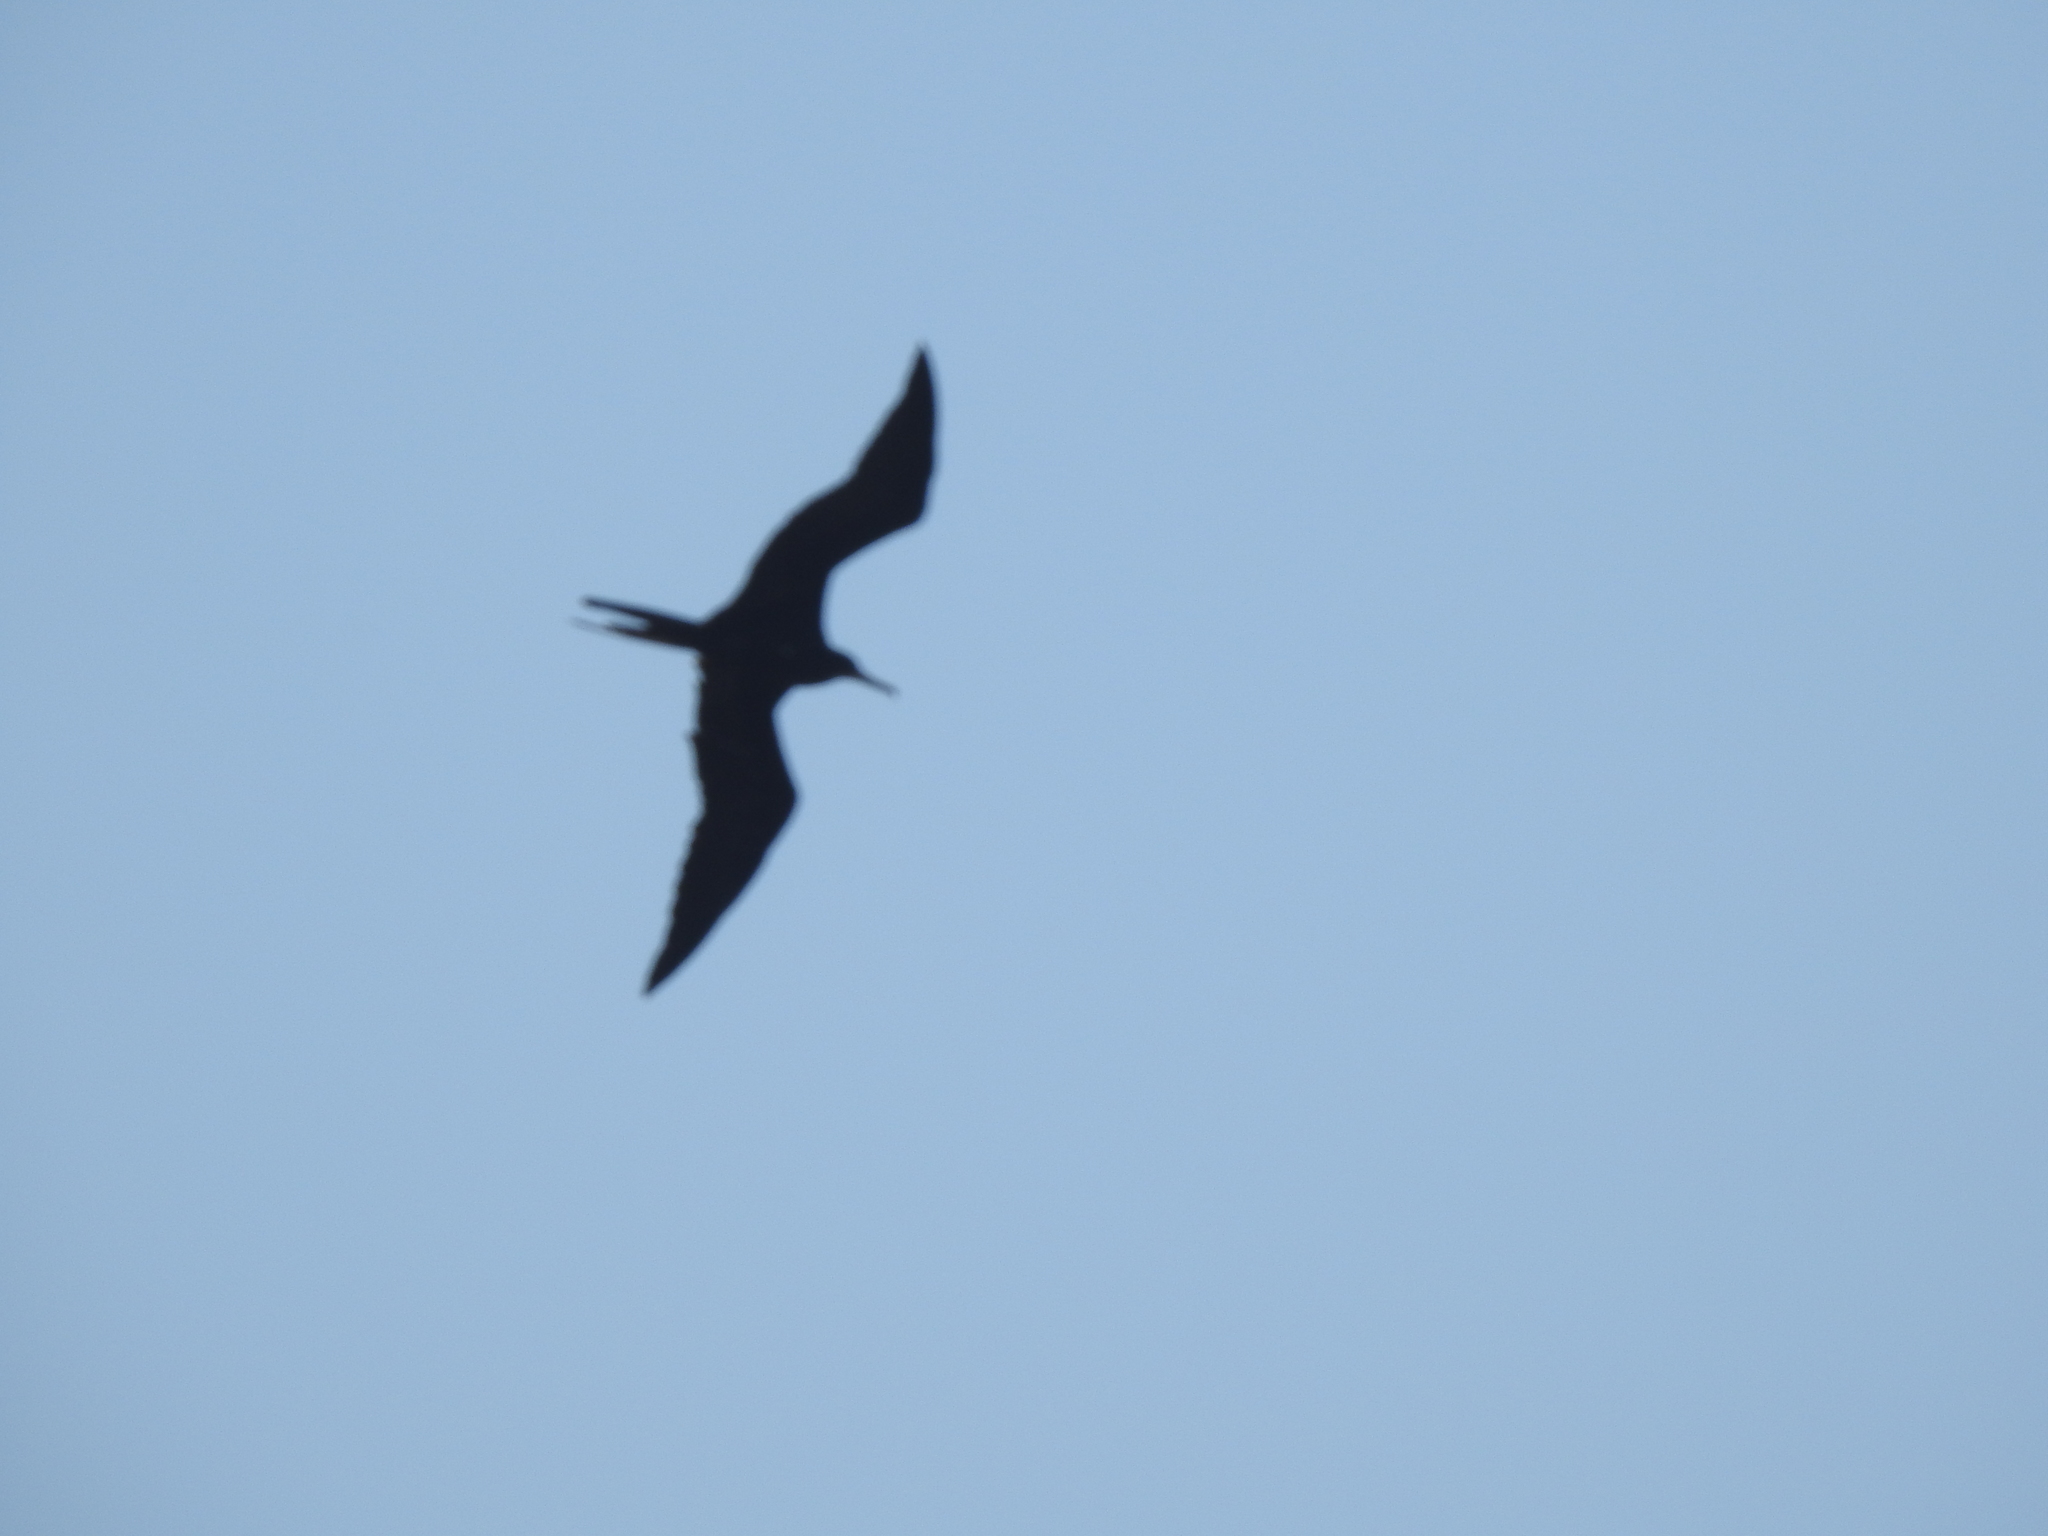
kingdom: Animalia
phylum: Chordata
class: Aves
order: Suliformes
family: Fregatidae
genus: Fregata
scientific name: Fregata magnificens
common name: Magnificent frigatebird
